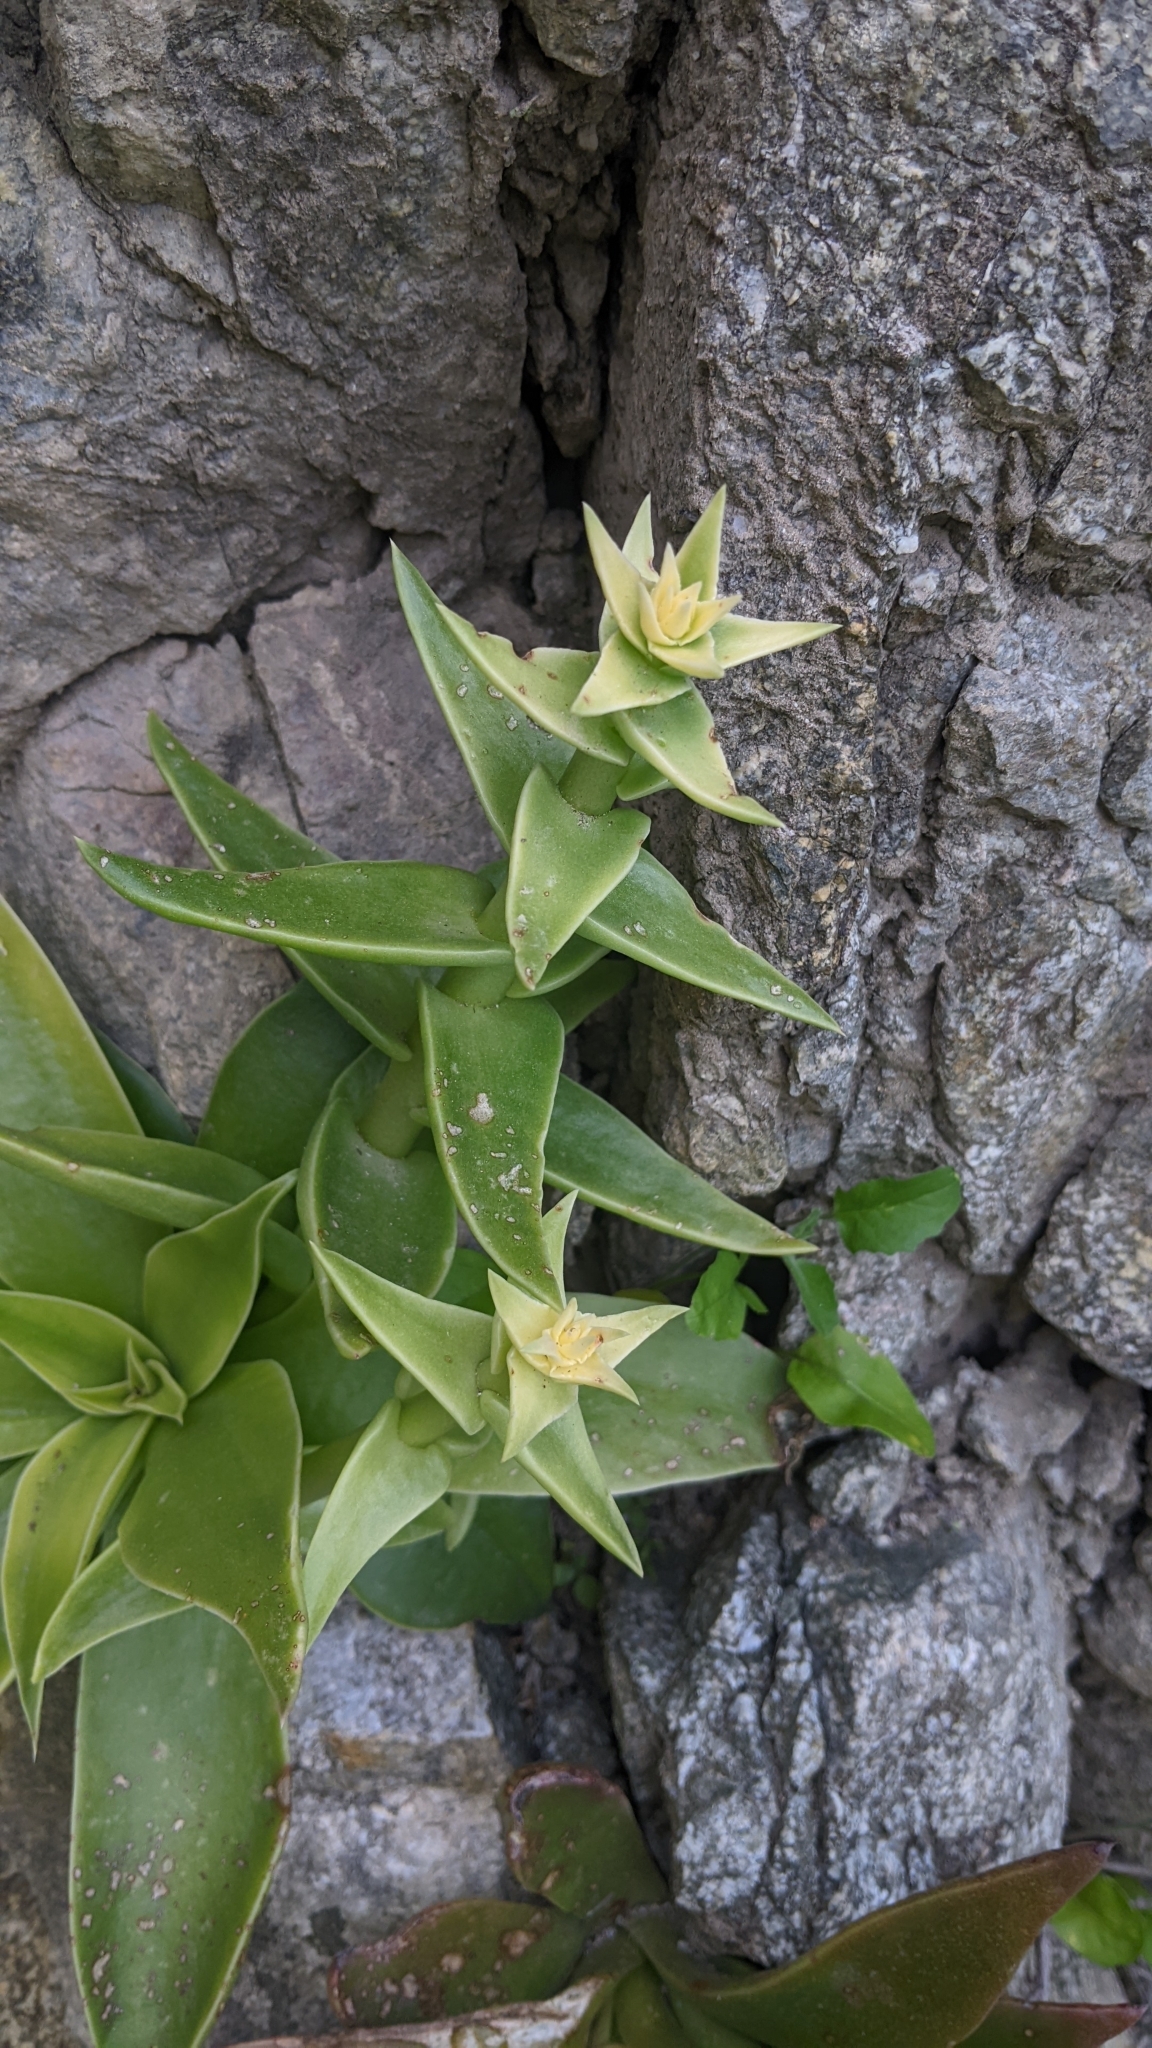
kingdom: Plantae
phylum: Tracheophyta
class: Magnoliopsida
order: Saxifragales
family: Crassulaceae
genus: Dudleya
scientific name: Dudleya lanceolata
